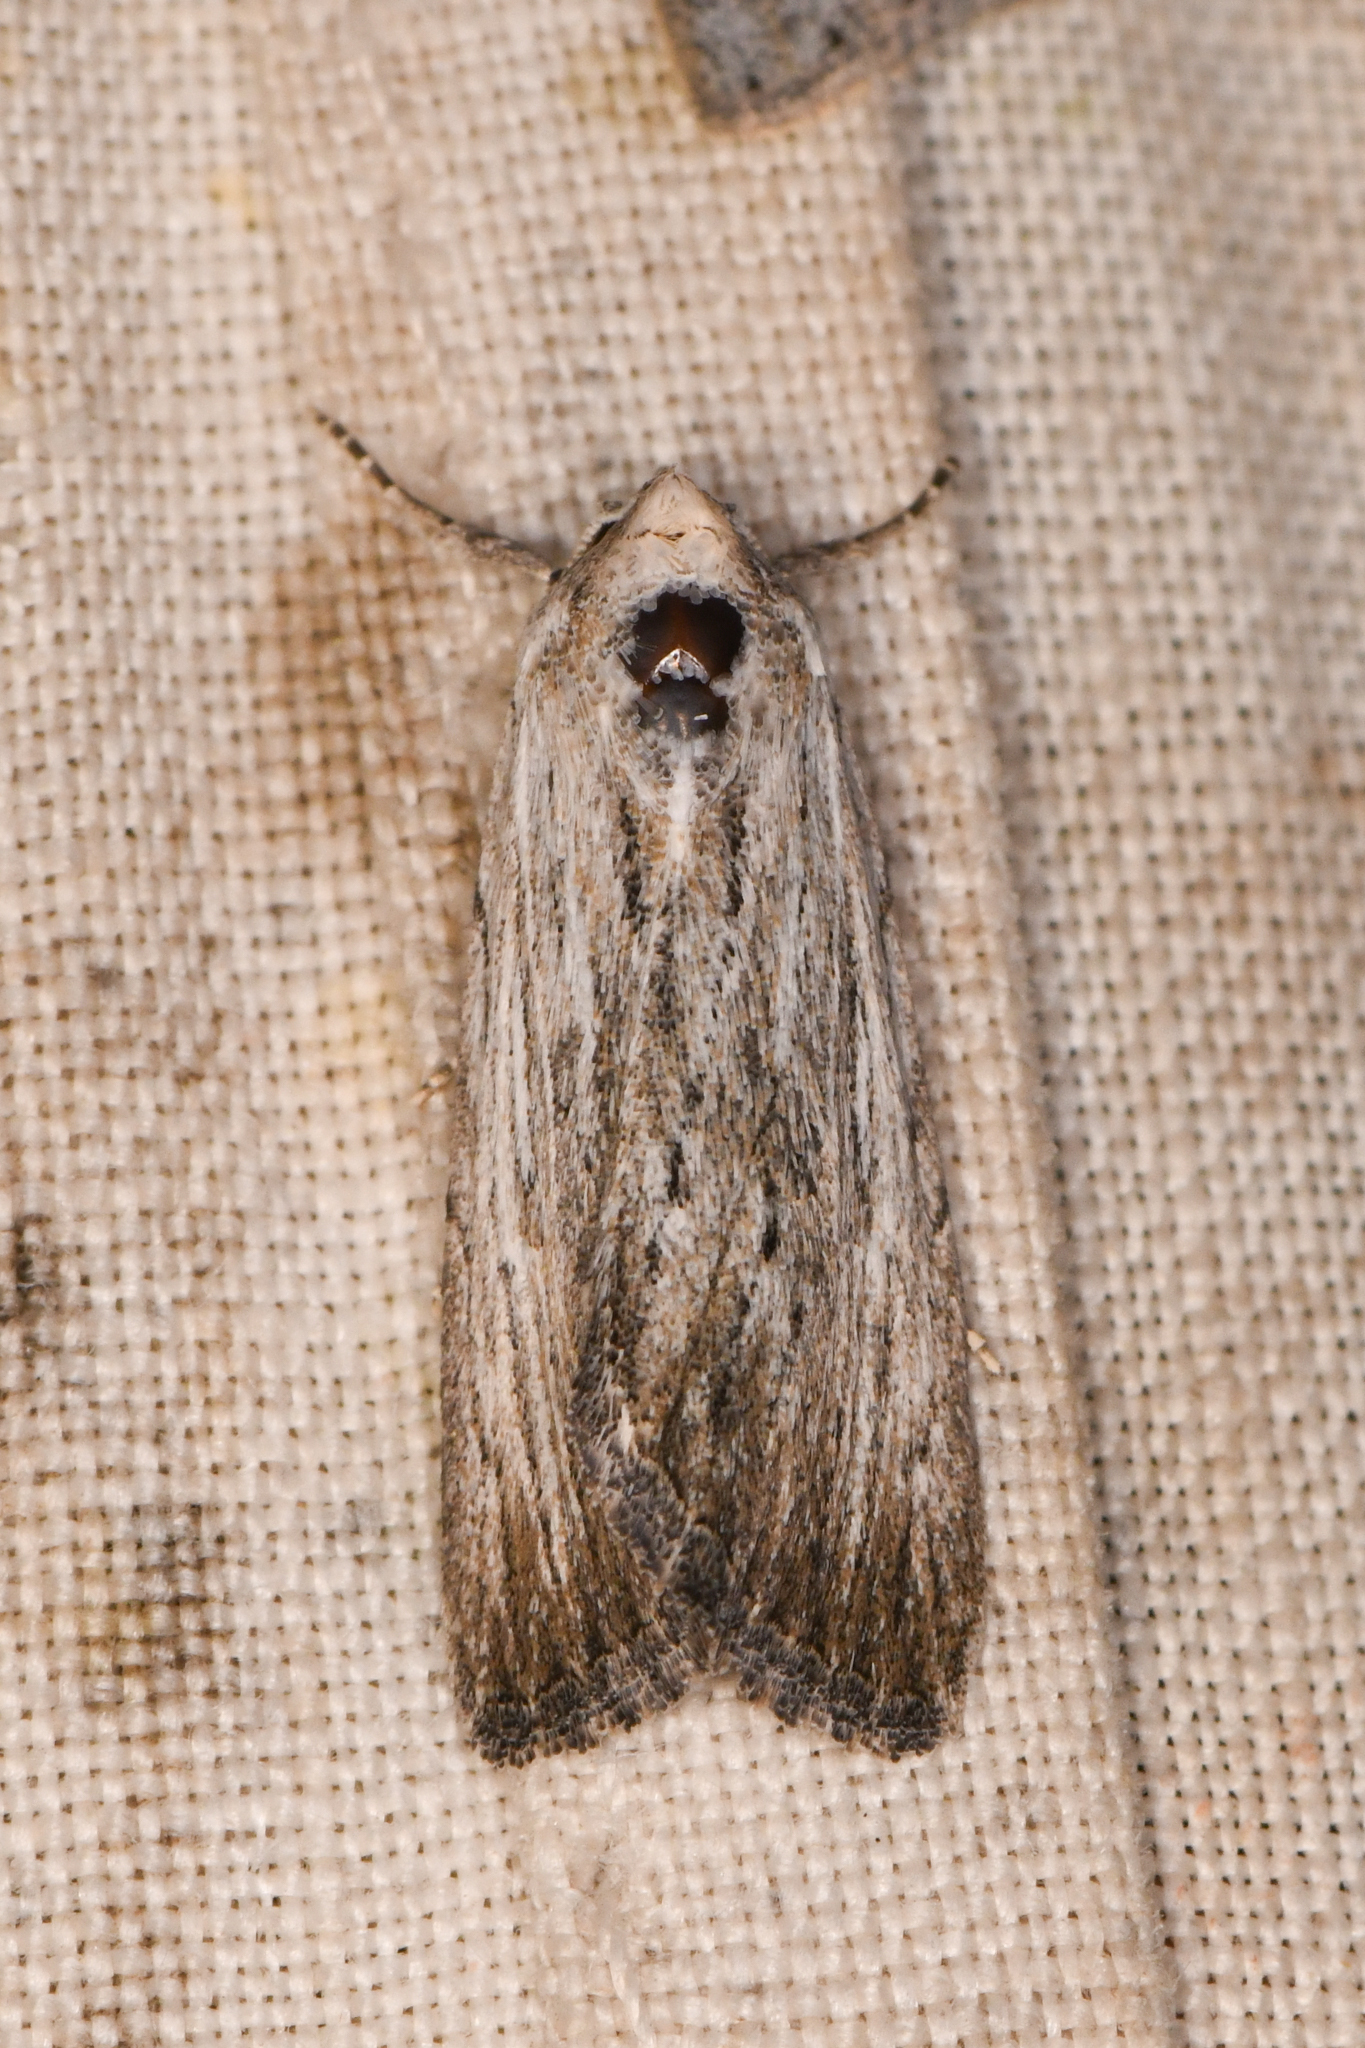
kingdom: Animalia
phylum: Arthropoda
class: Insecta
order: Lepidoptera
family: Noctuidae
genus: Catabena
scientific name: Catabena lineolata
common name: Fine-lined sallow
